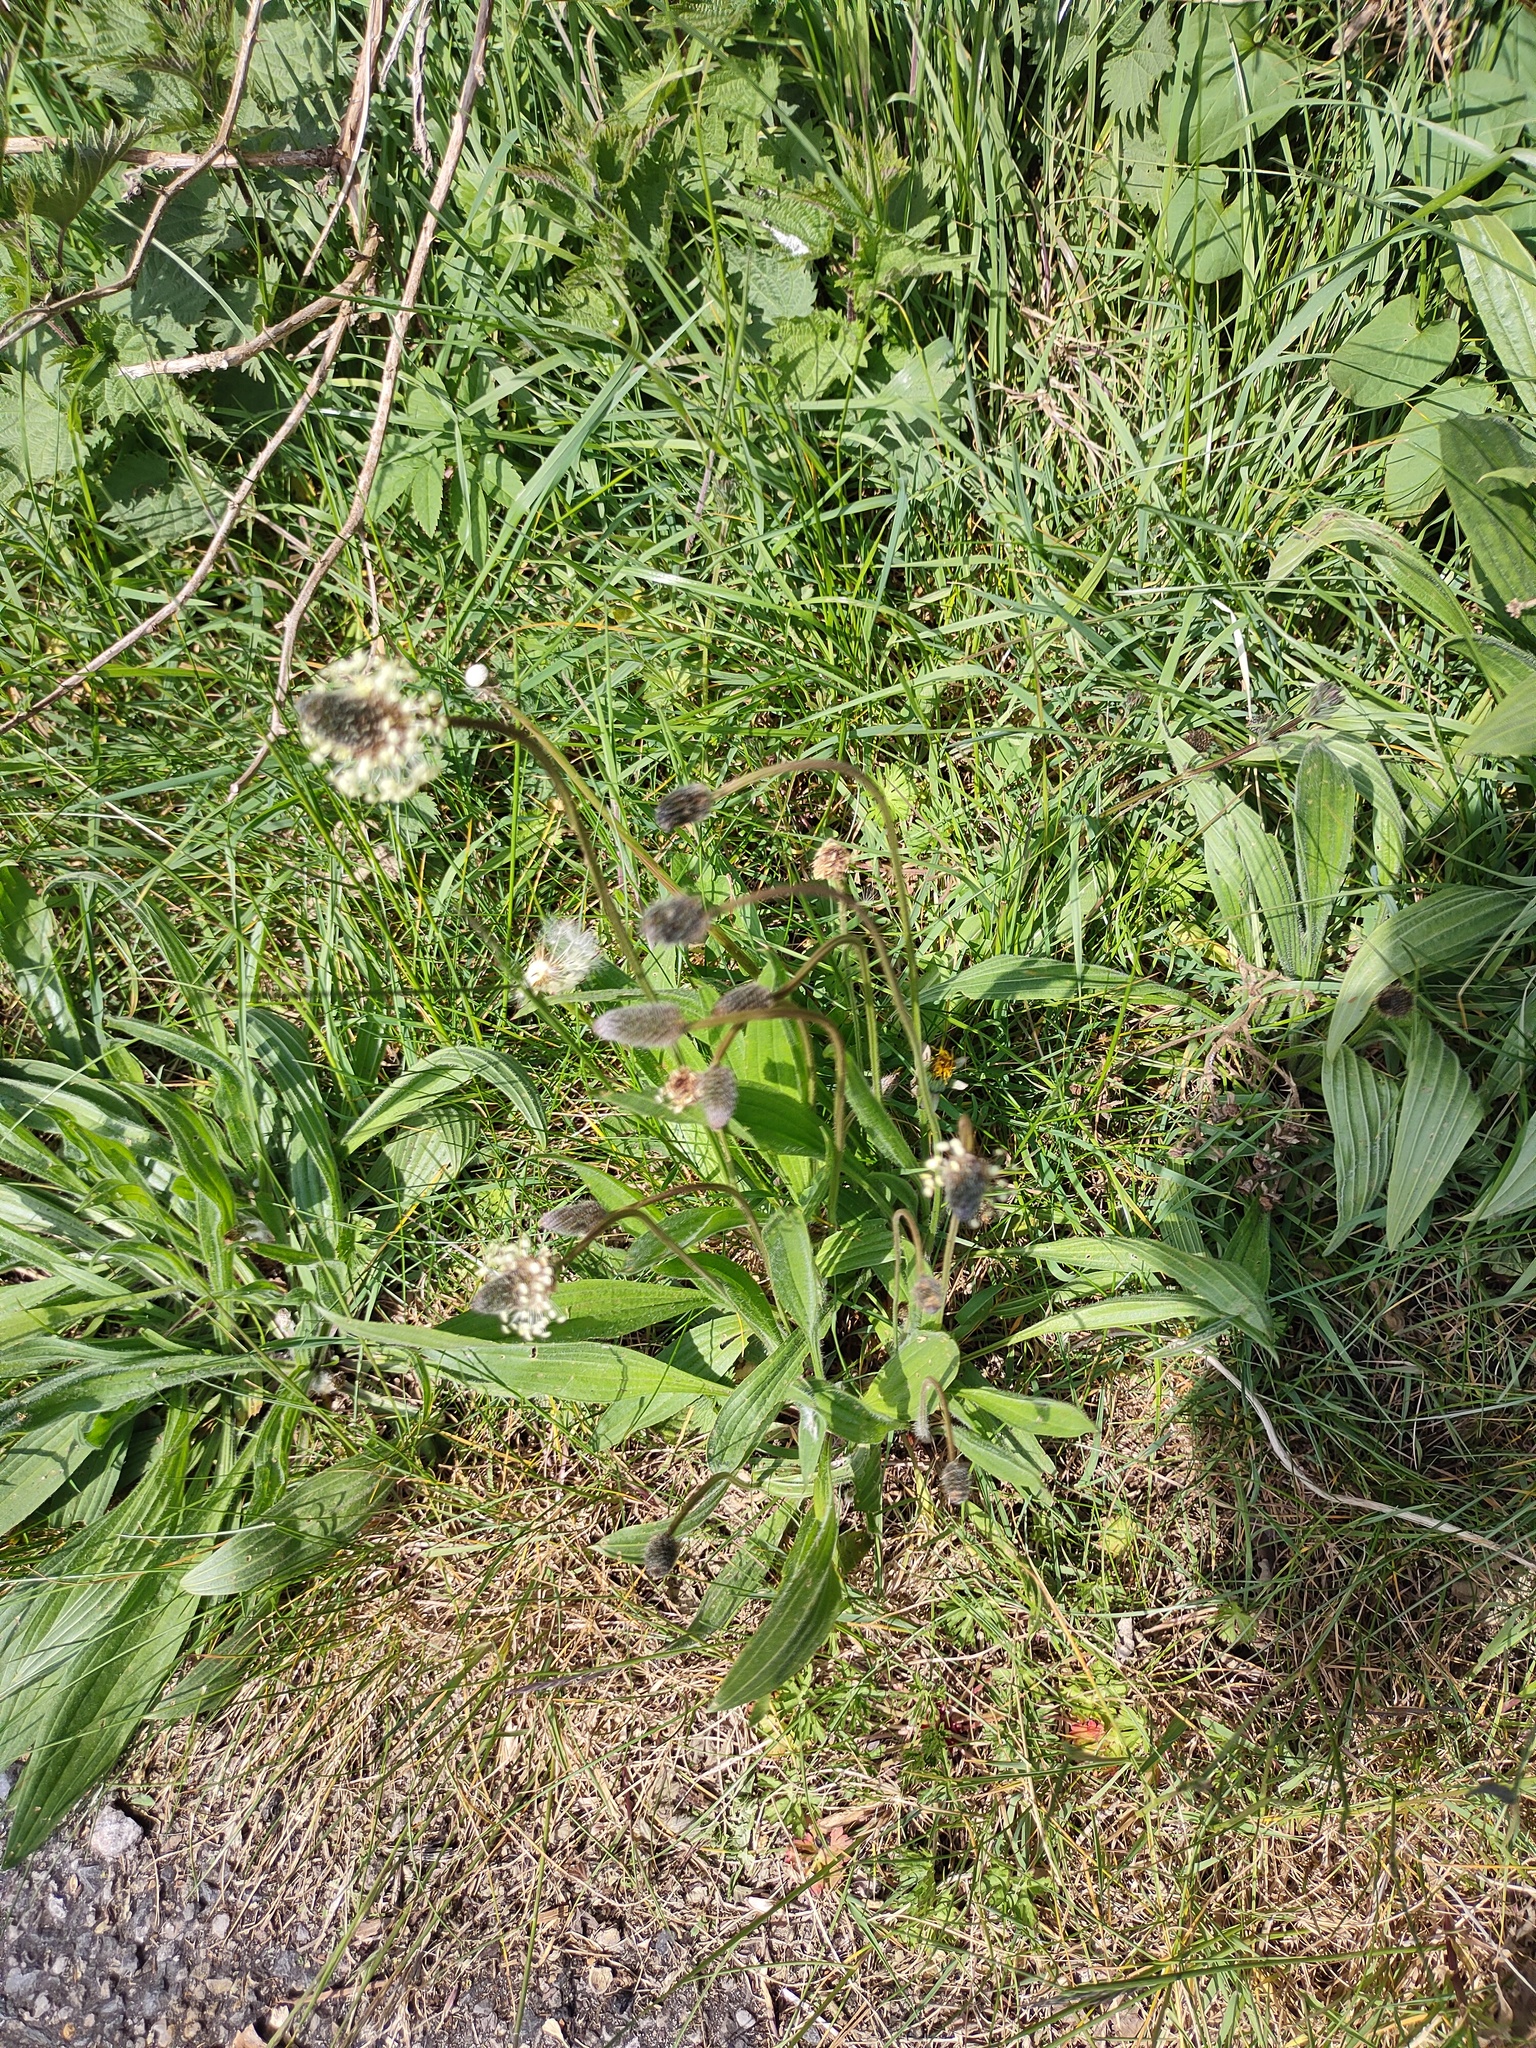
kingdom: Plantae
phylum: Tracheophyta
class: Magnoliopsida
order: Lamiales
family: Plantaginaceae
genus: Plantago
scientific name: Plantago lanceolata
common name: Ribwort plantain
